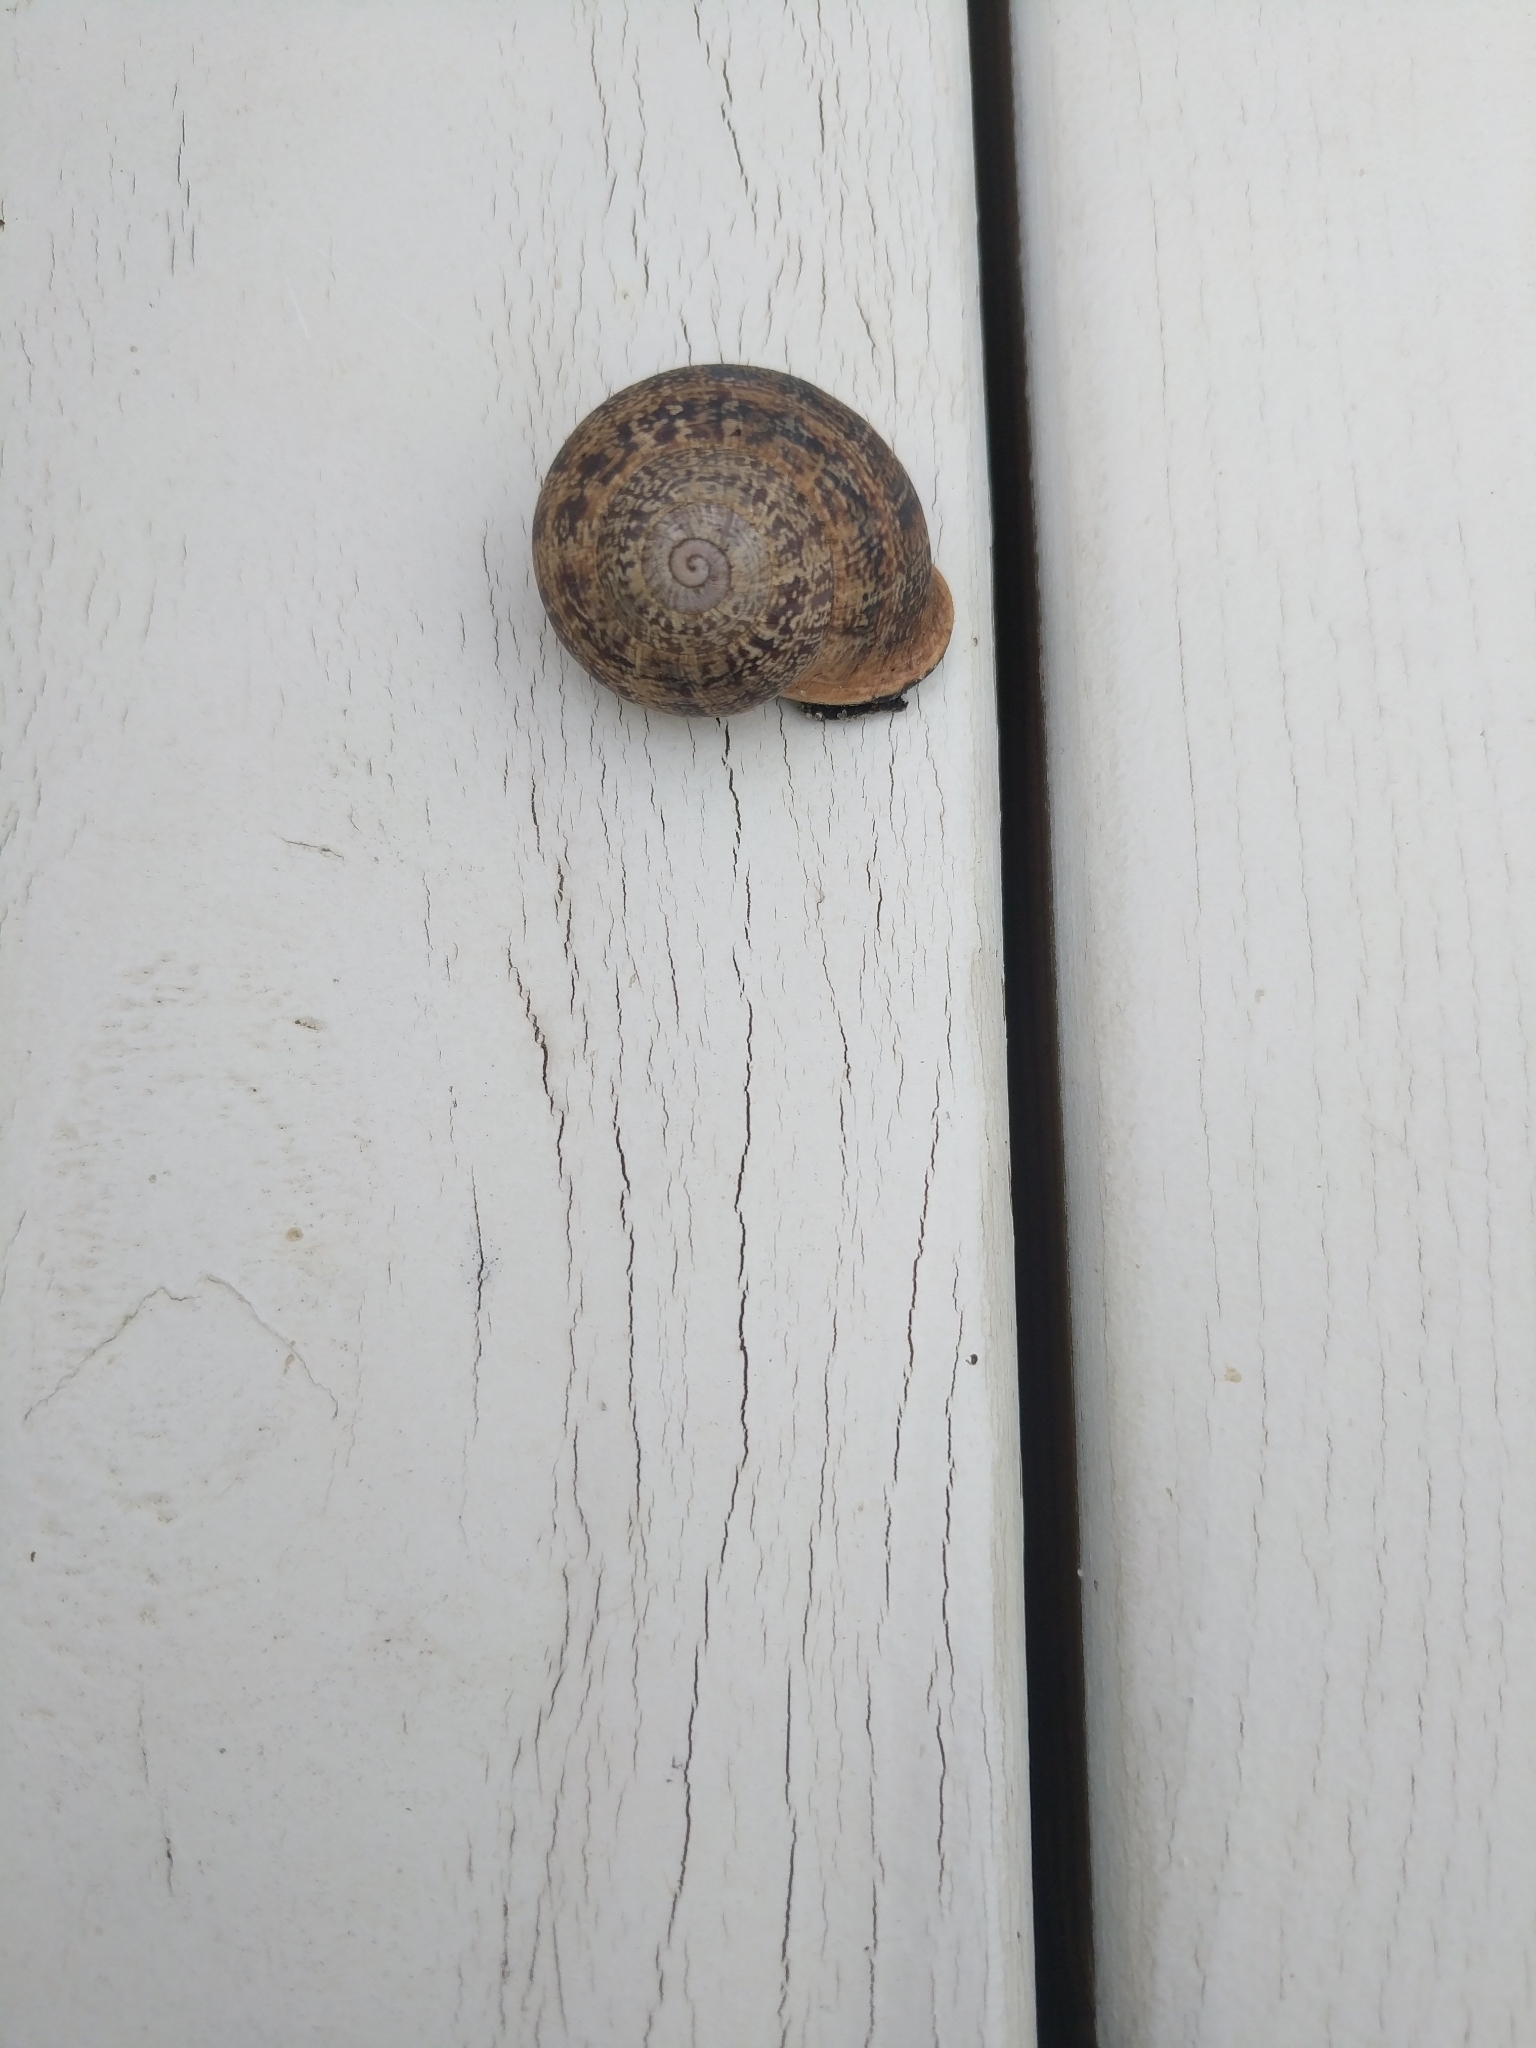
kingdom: Animalia
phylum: Mollusca
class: Gastropoda
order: Stylommatophora
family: Helicidae
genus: Otala
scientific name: Otala lactea
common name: Milk snail
